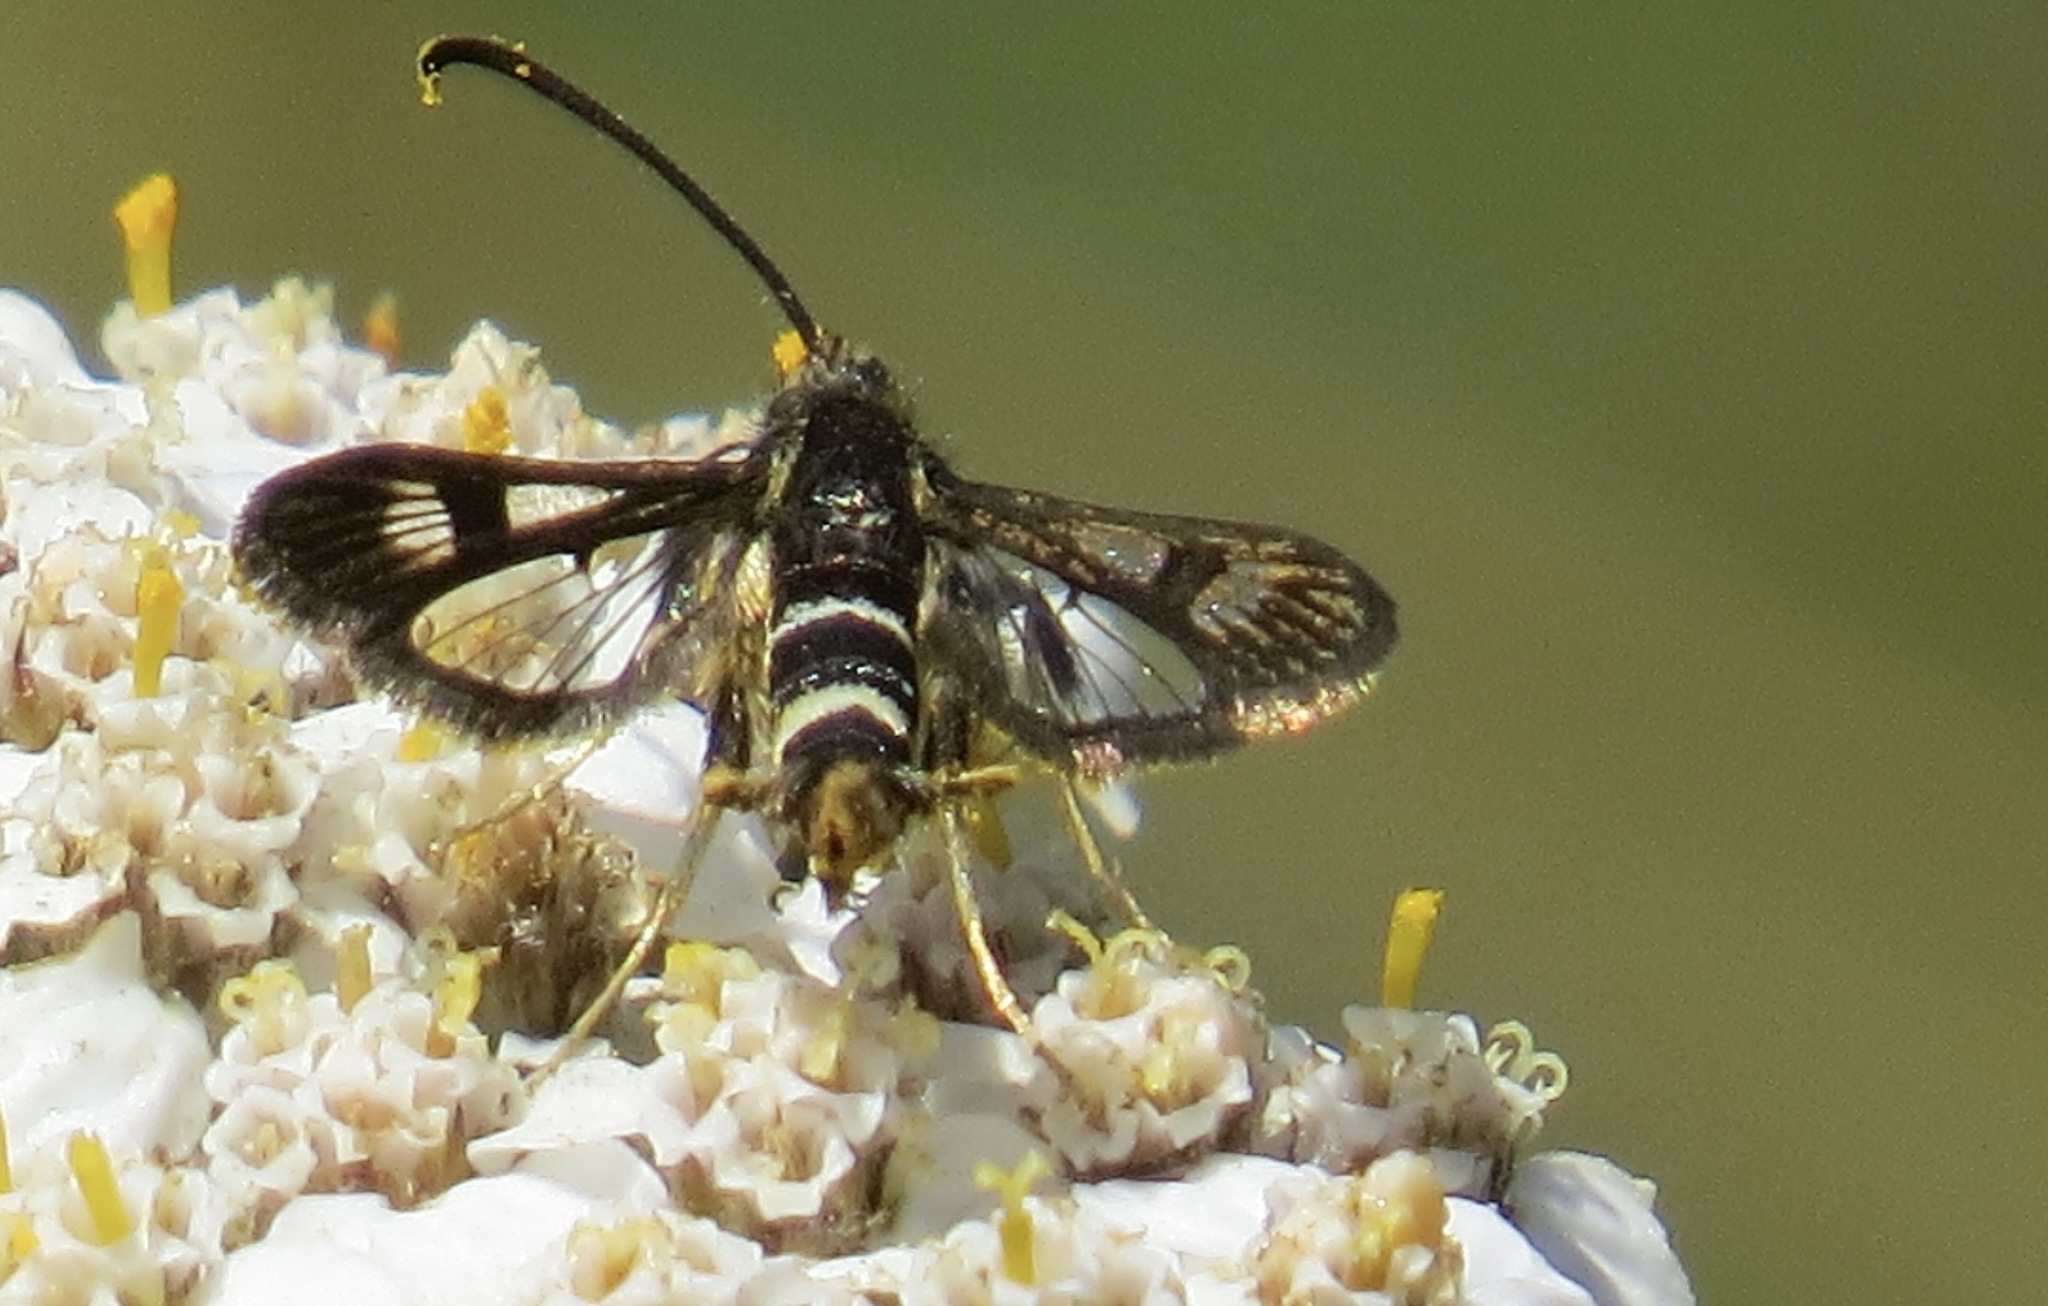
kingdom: Animalia
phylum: Arthropoda
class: Insecta
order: Lepidoptera
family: Sesiidae
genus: Synanthedon
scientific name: Synanthedon bibionipennis
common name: Strawberry crown moth
